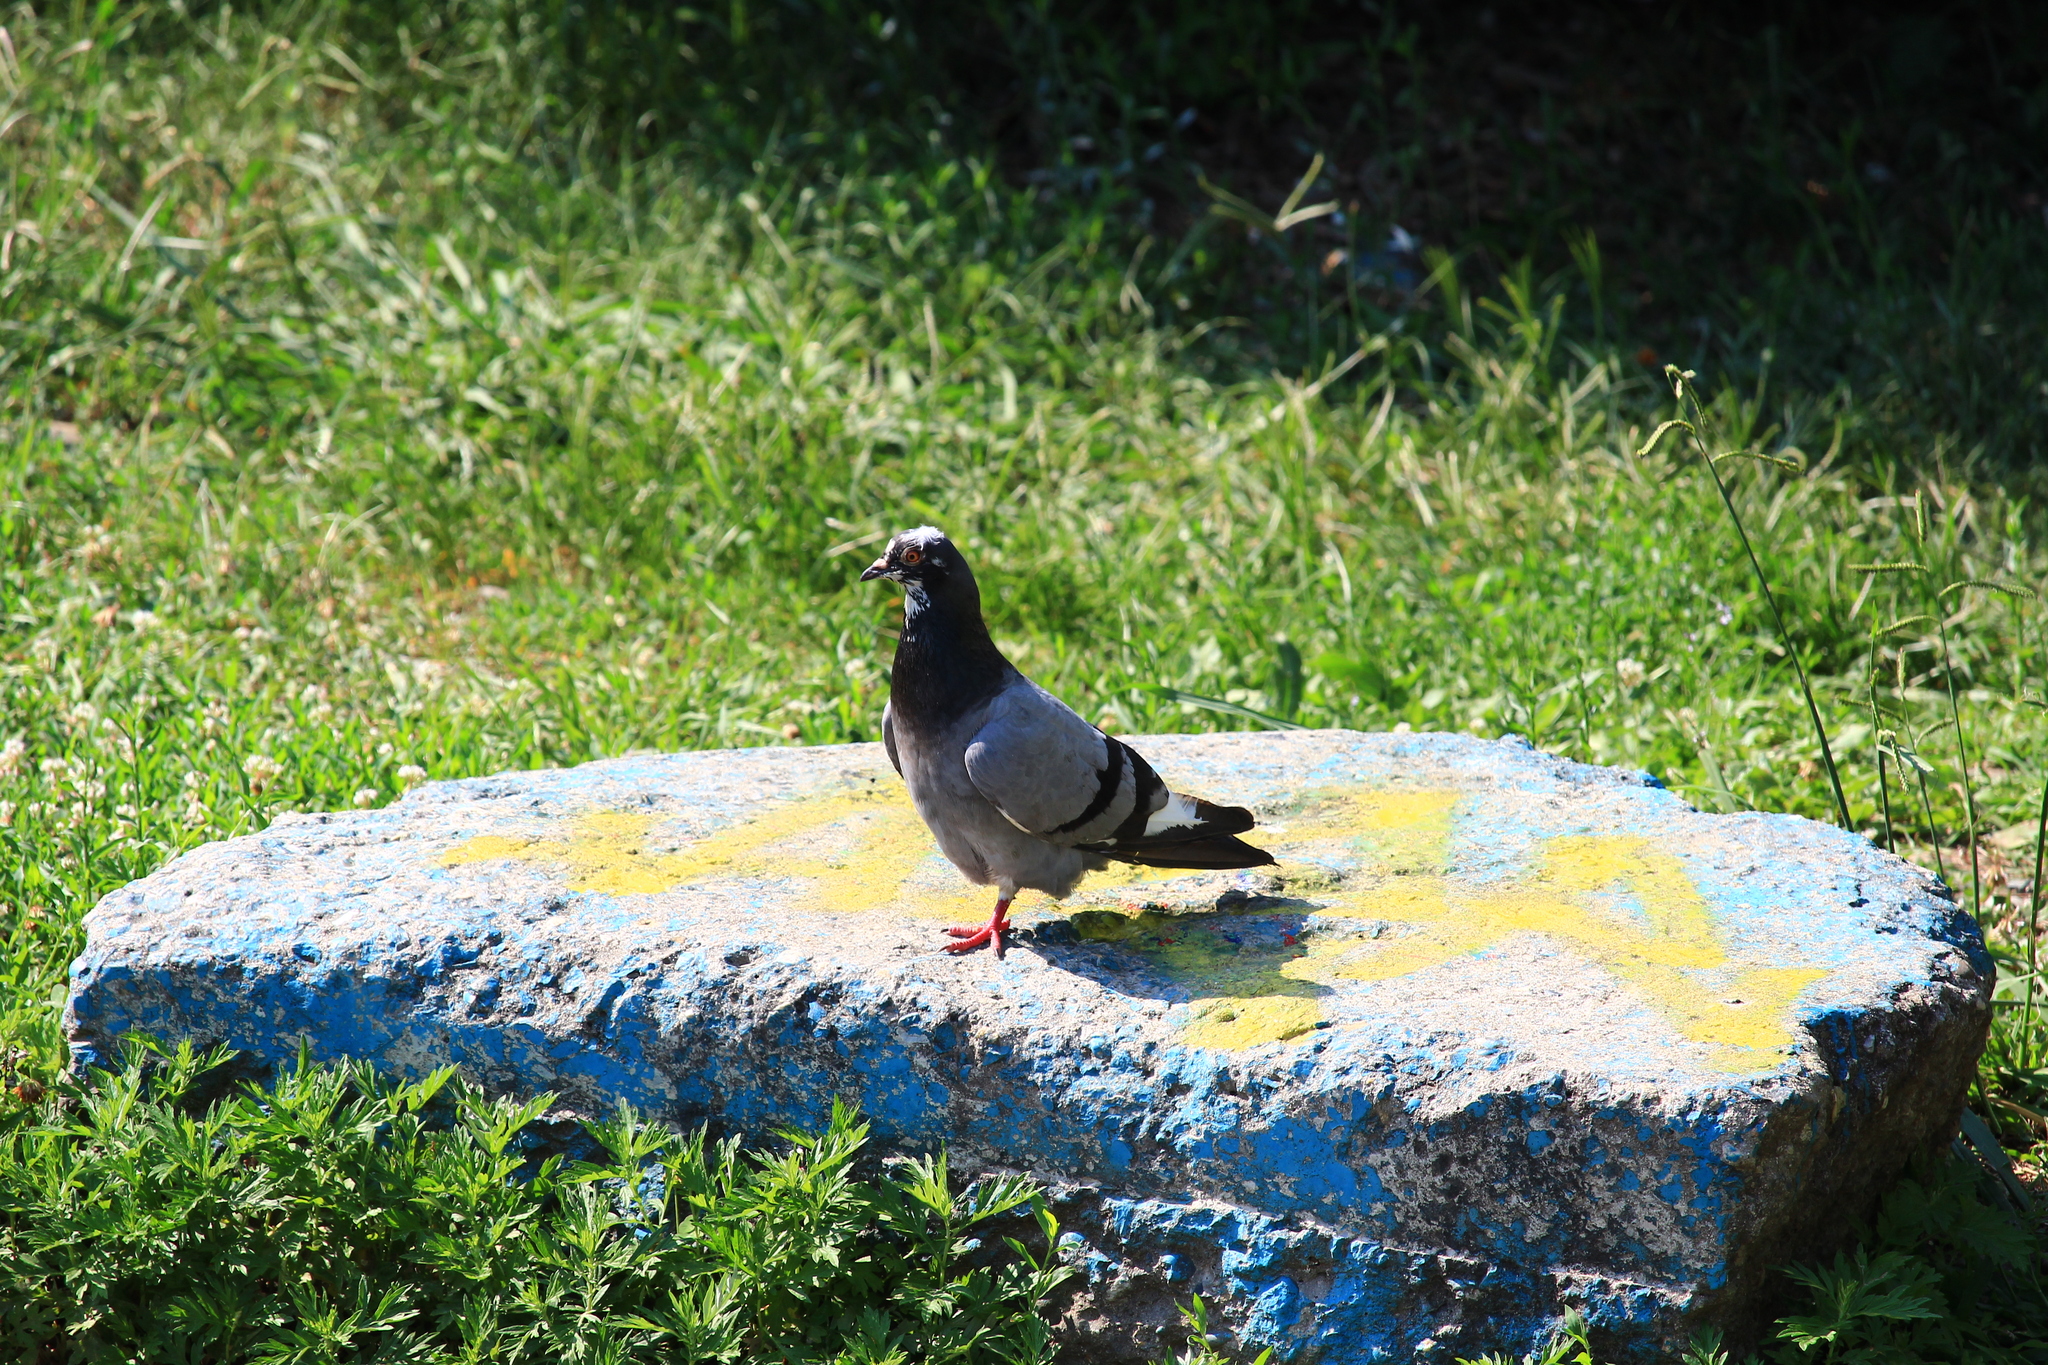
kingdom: Animalia
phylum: Chordata
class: Aves
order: Columbiformes
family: Columbidae
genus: Columba
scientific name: Columba livia
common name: Rock pigeon
